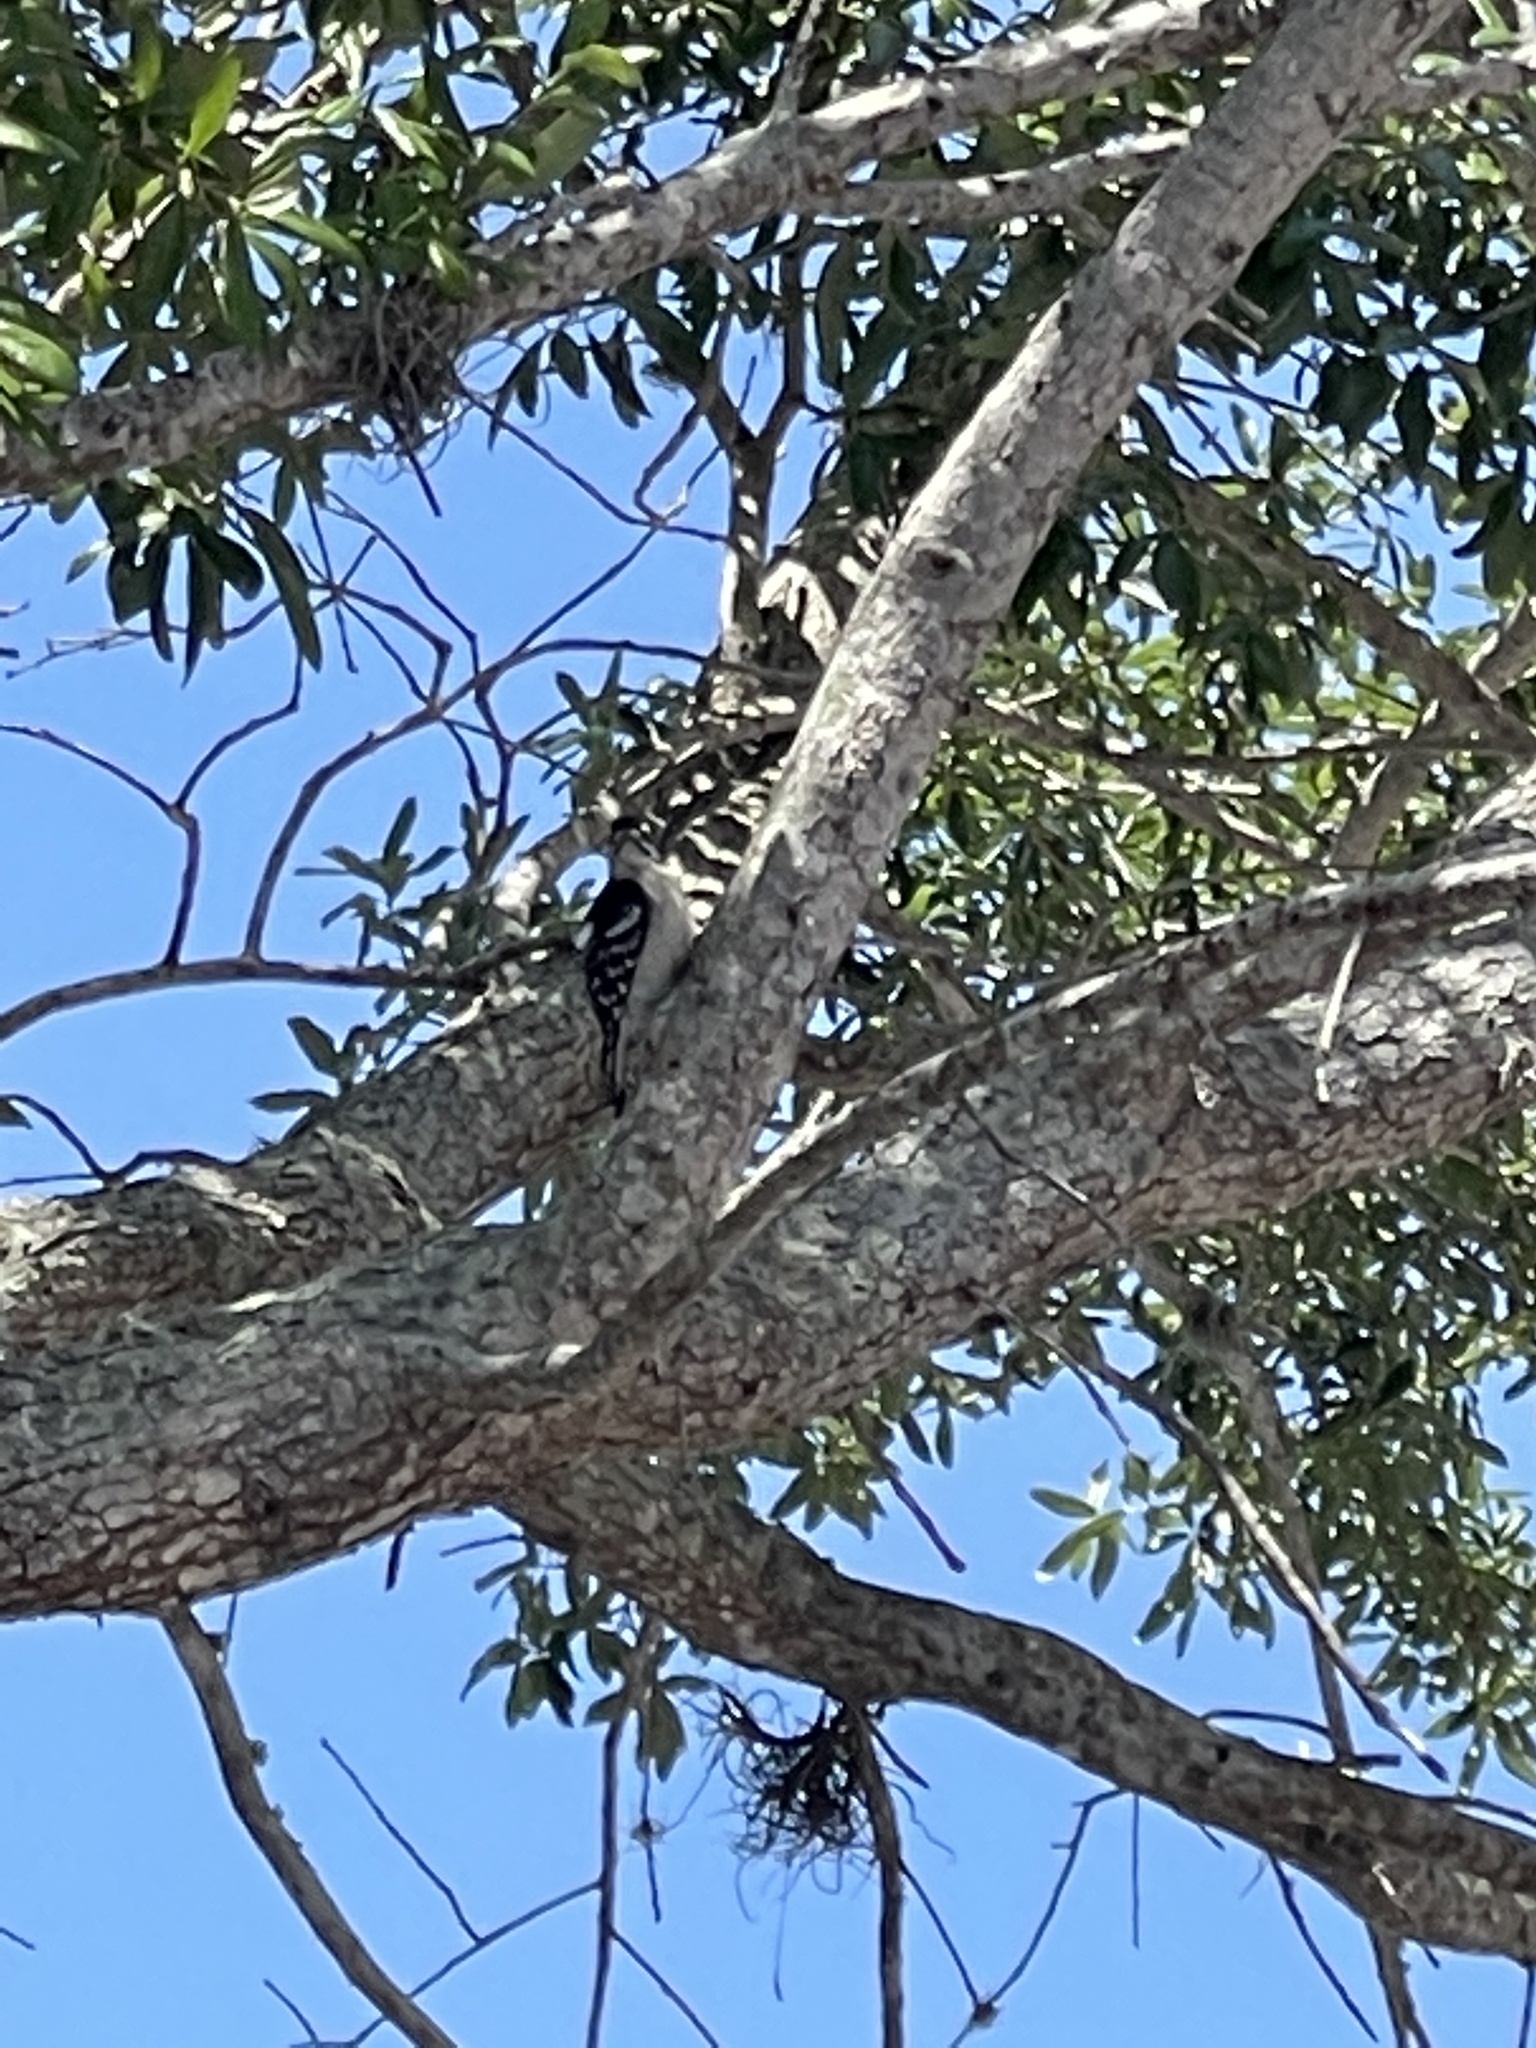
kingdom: Animalia
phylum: Chordata
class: Aves
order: Piciformes
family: Picidae
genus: Dryobates
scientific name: Dryobates pubescens
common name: Downy woodpecker
